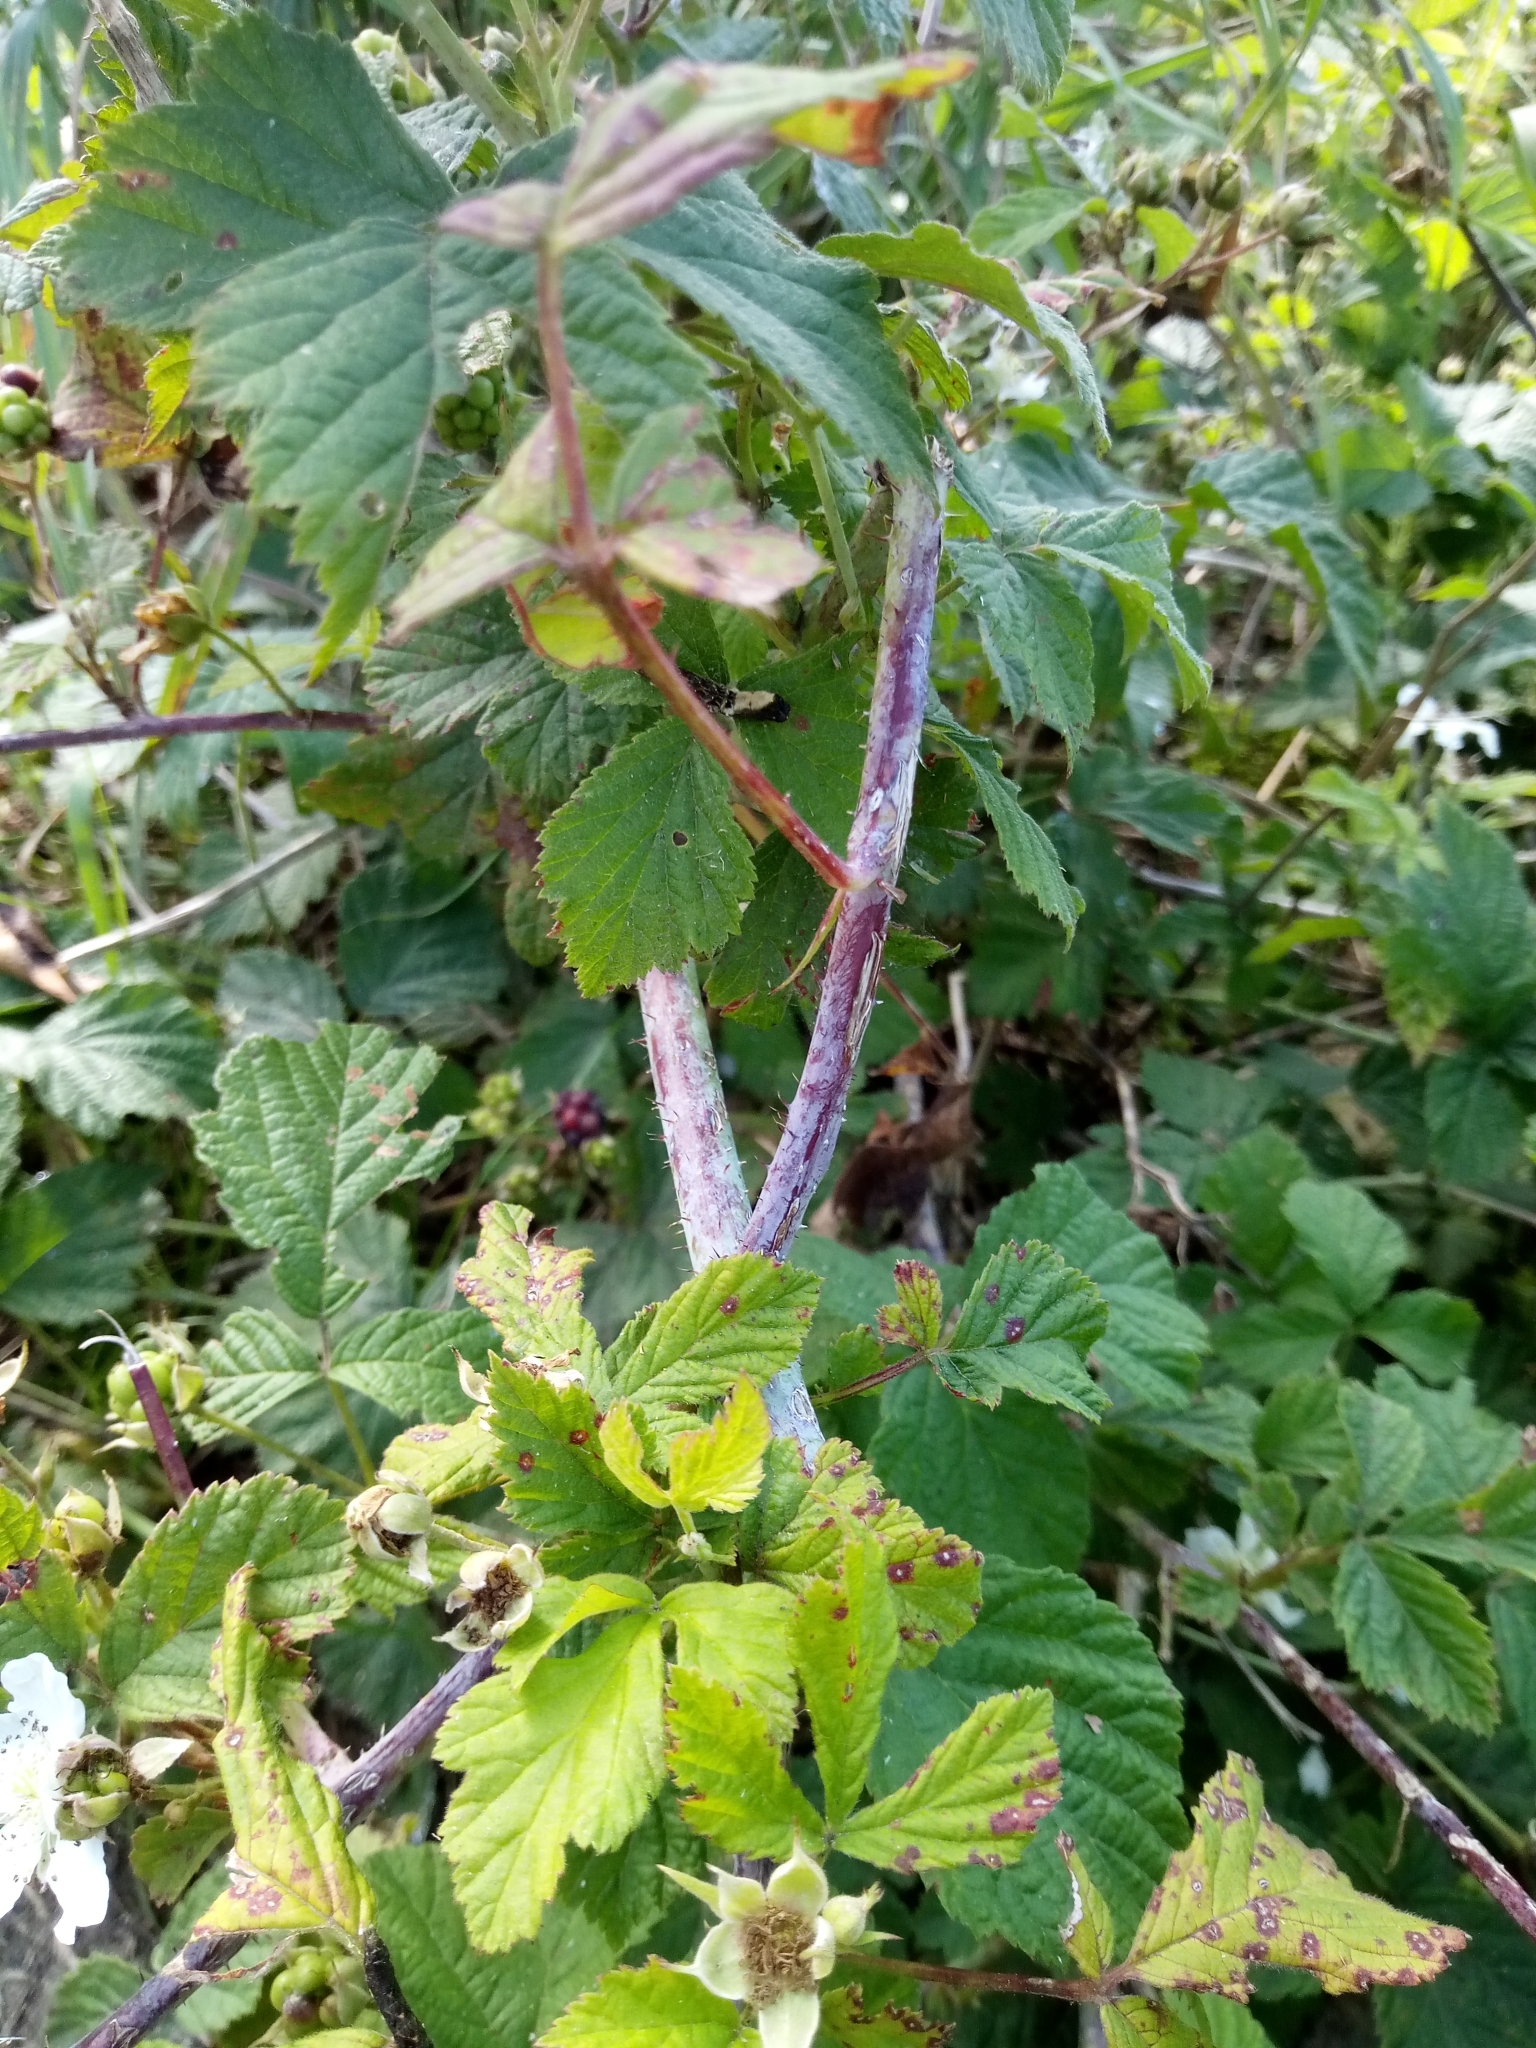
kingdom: Plantae
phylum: Tracheophyta
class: Magnoliopsida
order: Rosales
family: Rosaceae
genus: Rubus
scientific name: Rubus caesius
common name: Dewberry
